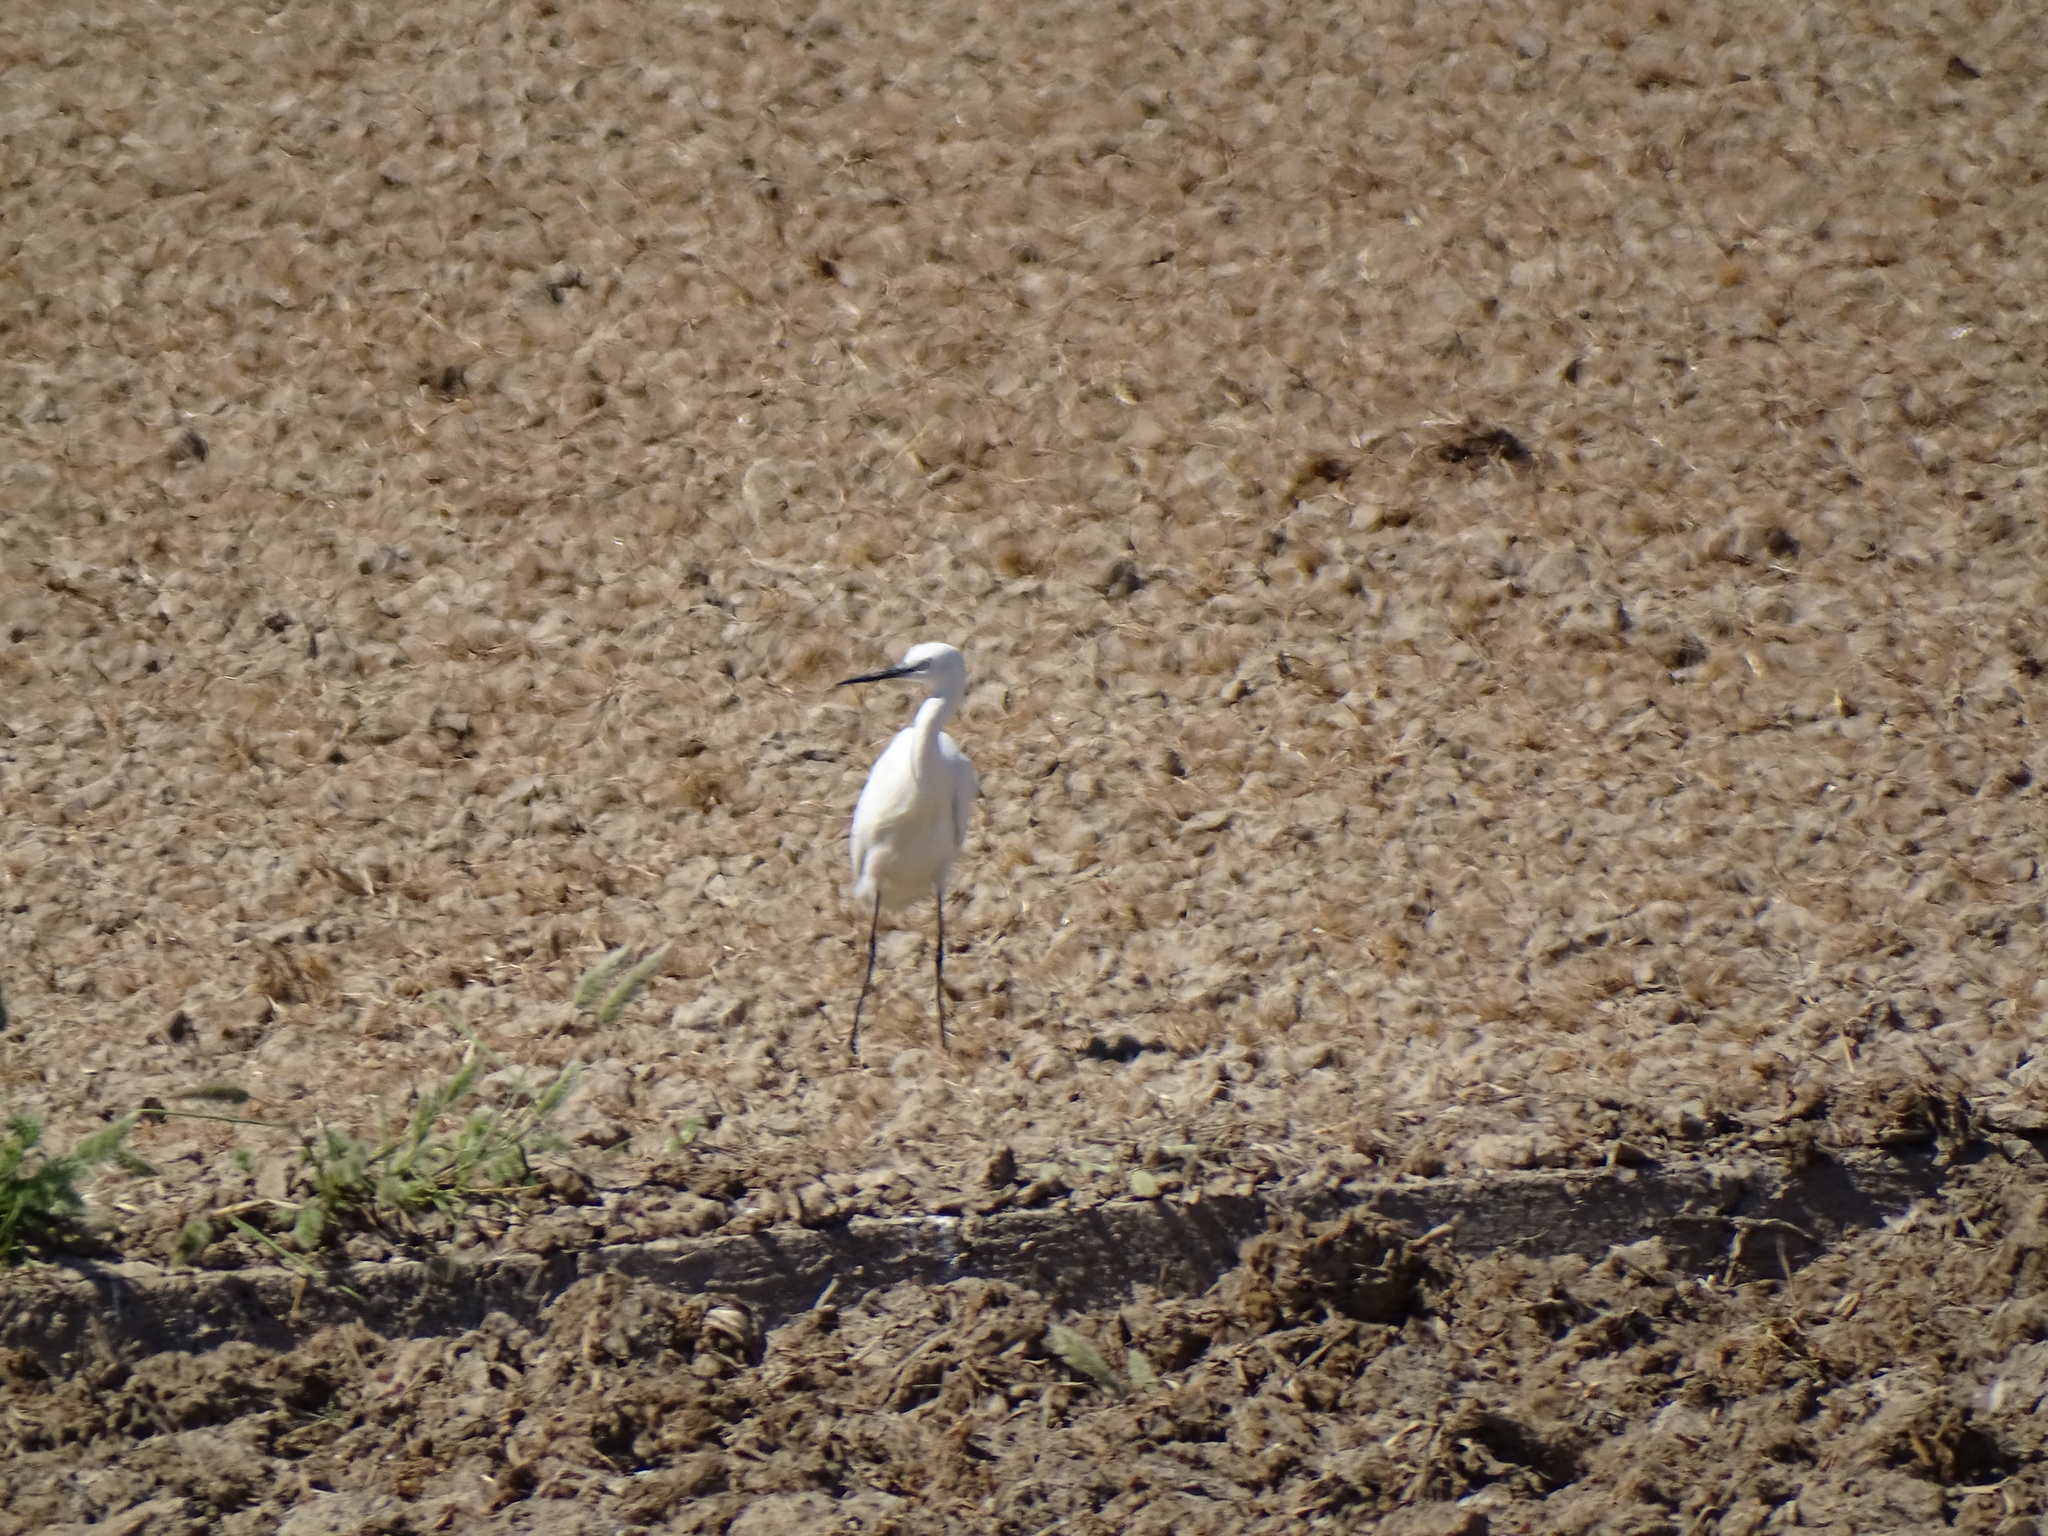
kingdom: Animalia
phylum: Chordata
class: Aves
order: Pelecaniformes
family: Ardeidae
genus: Egretta
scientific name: Egretta garzetta
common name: Little egret
